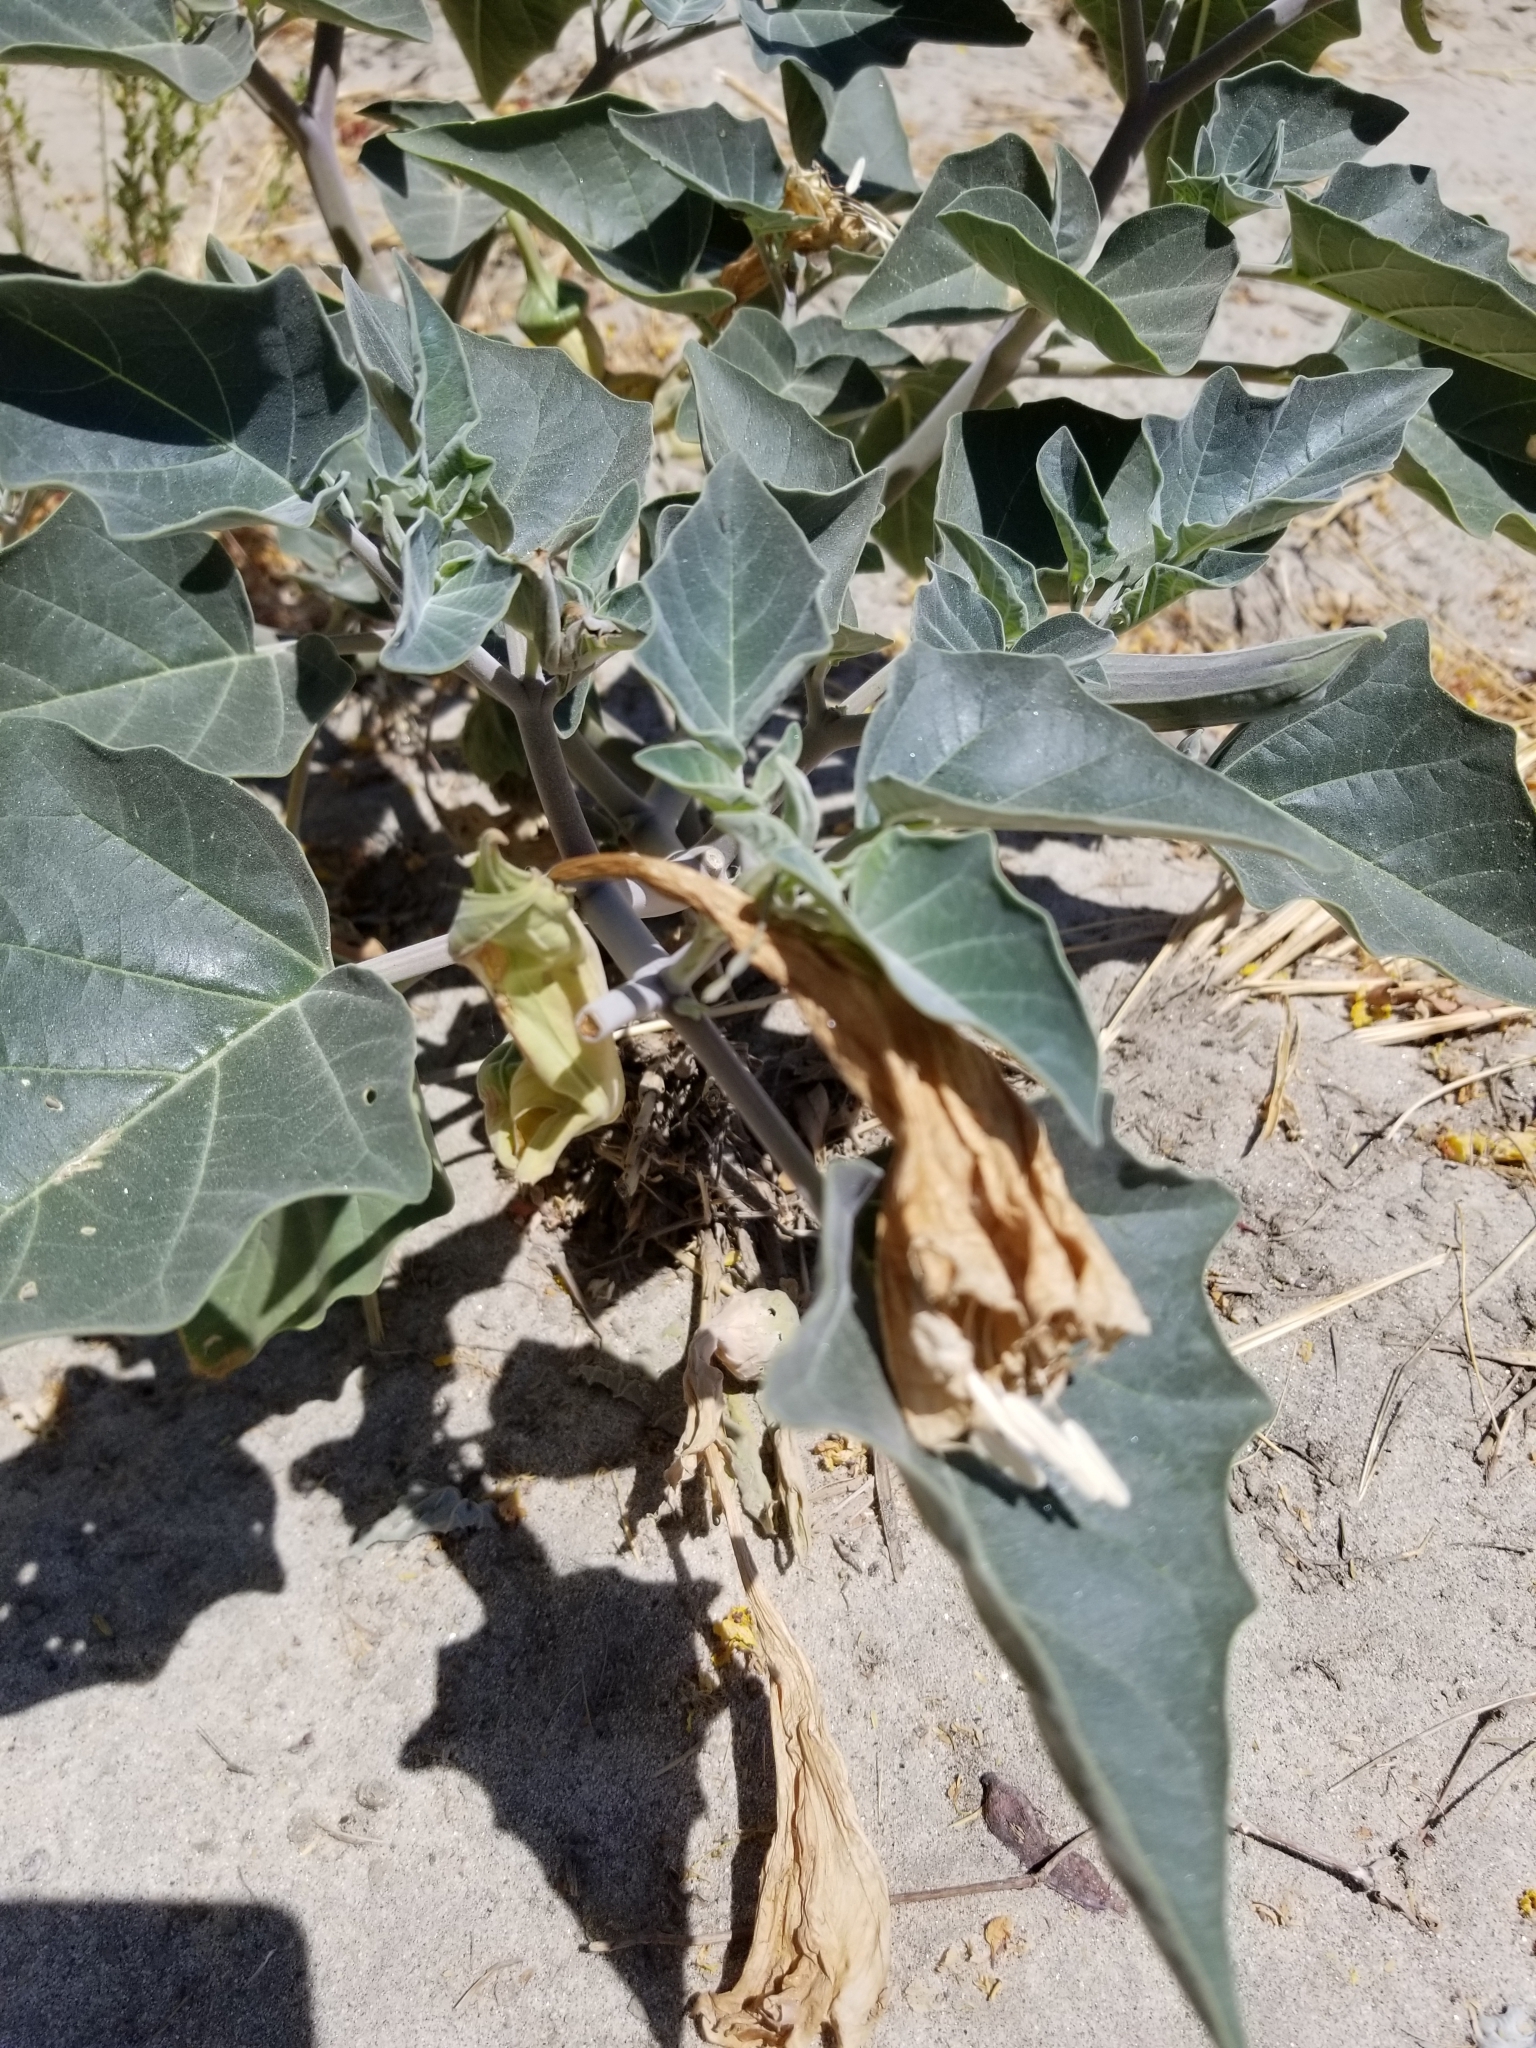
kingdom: Plantae
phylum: Tracheophyta
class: Magnoliopsida
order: Solanales
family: Solanaceae
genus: Datura
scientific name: Datura wrightii
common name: Sacred thorn-apple
